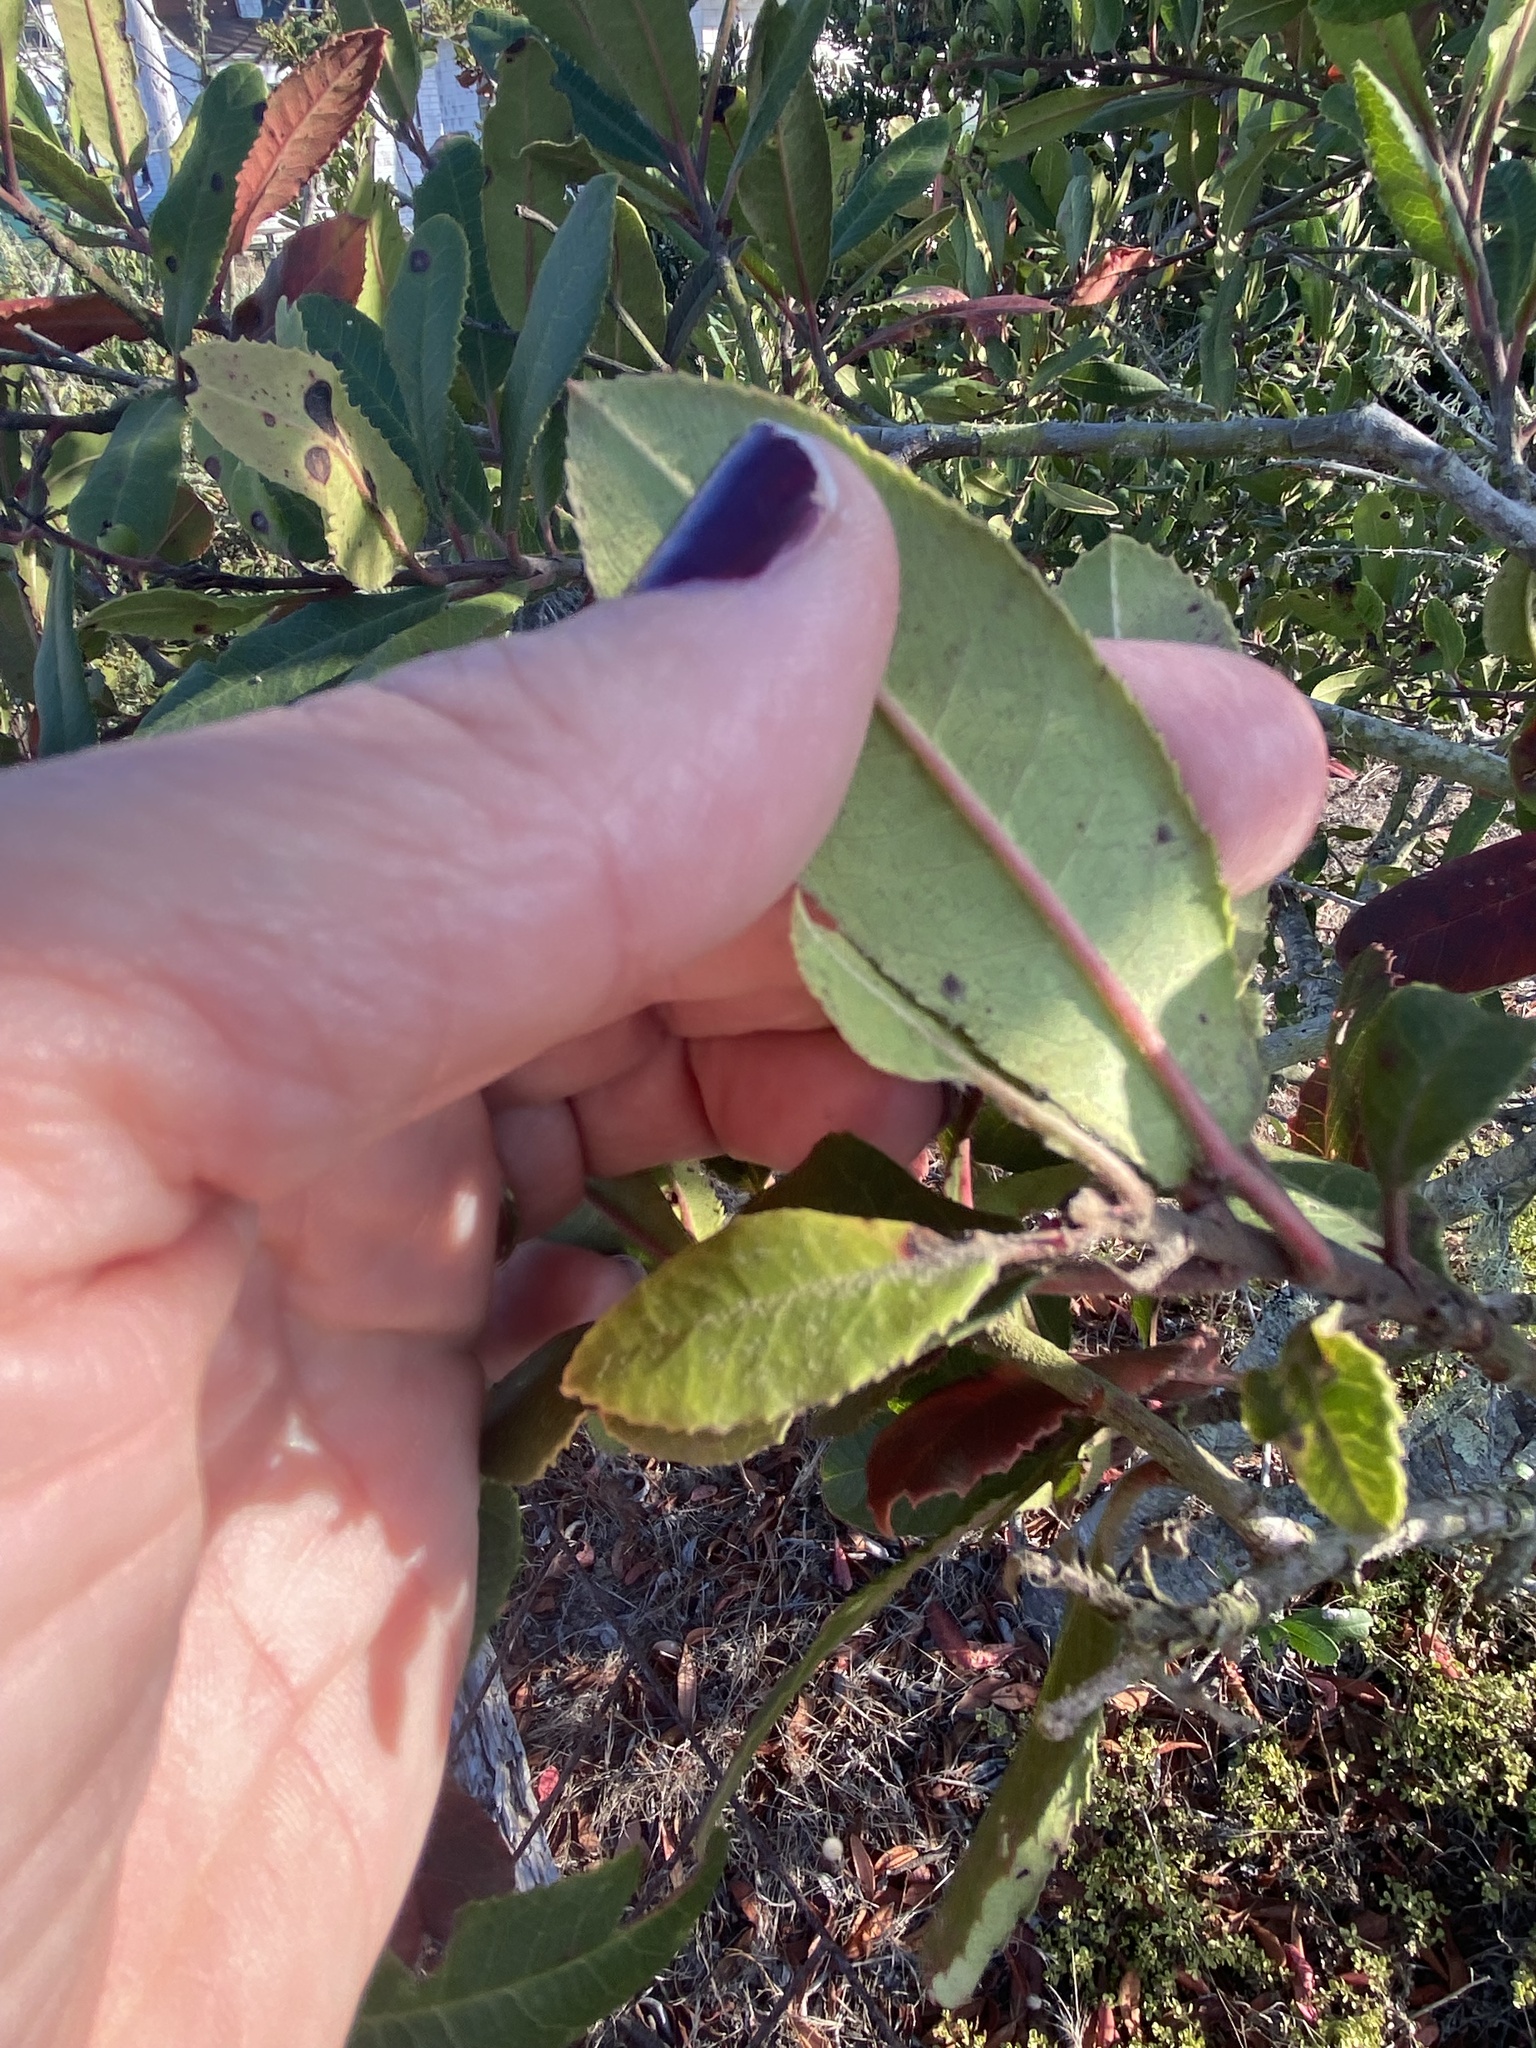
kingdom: Plantae
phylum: Tracheophyta
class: Magnoliopsida
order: Rosales
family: Rosaceae
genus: Heteromeles
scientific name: Heteromeles arbutifolia
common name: California-holly
